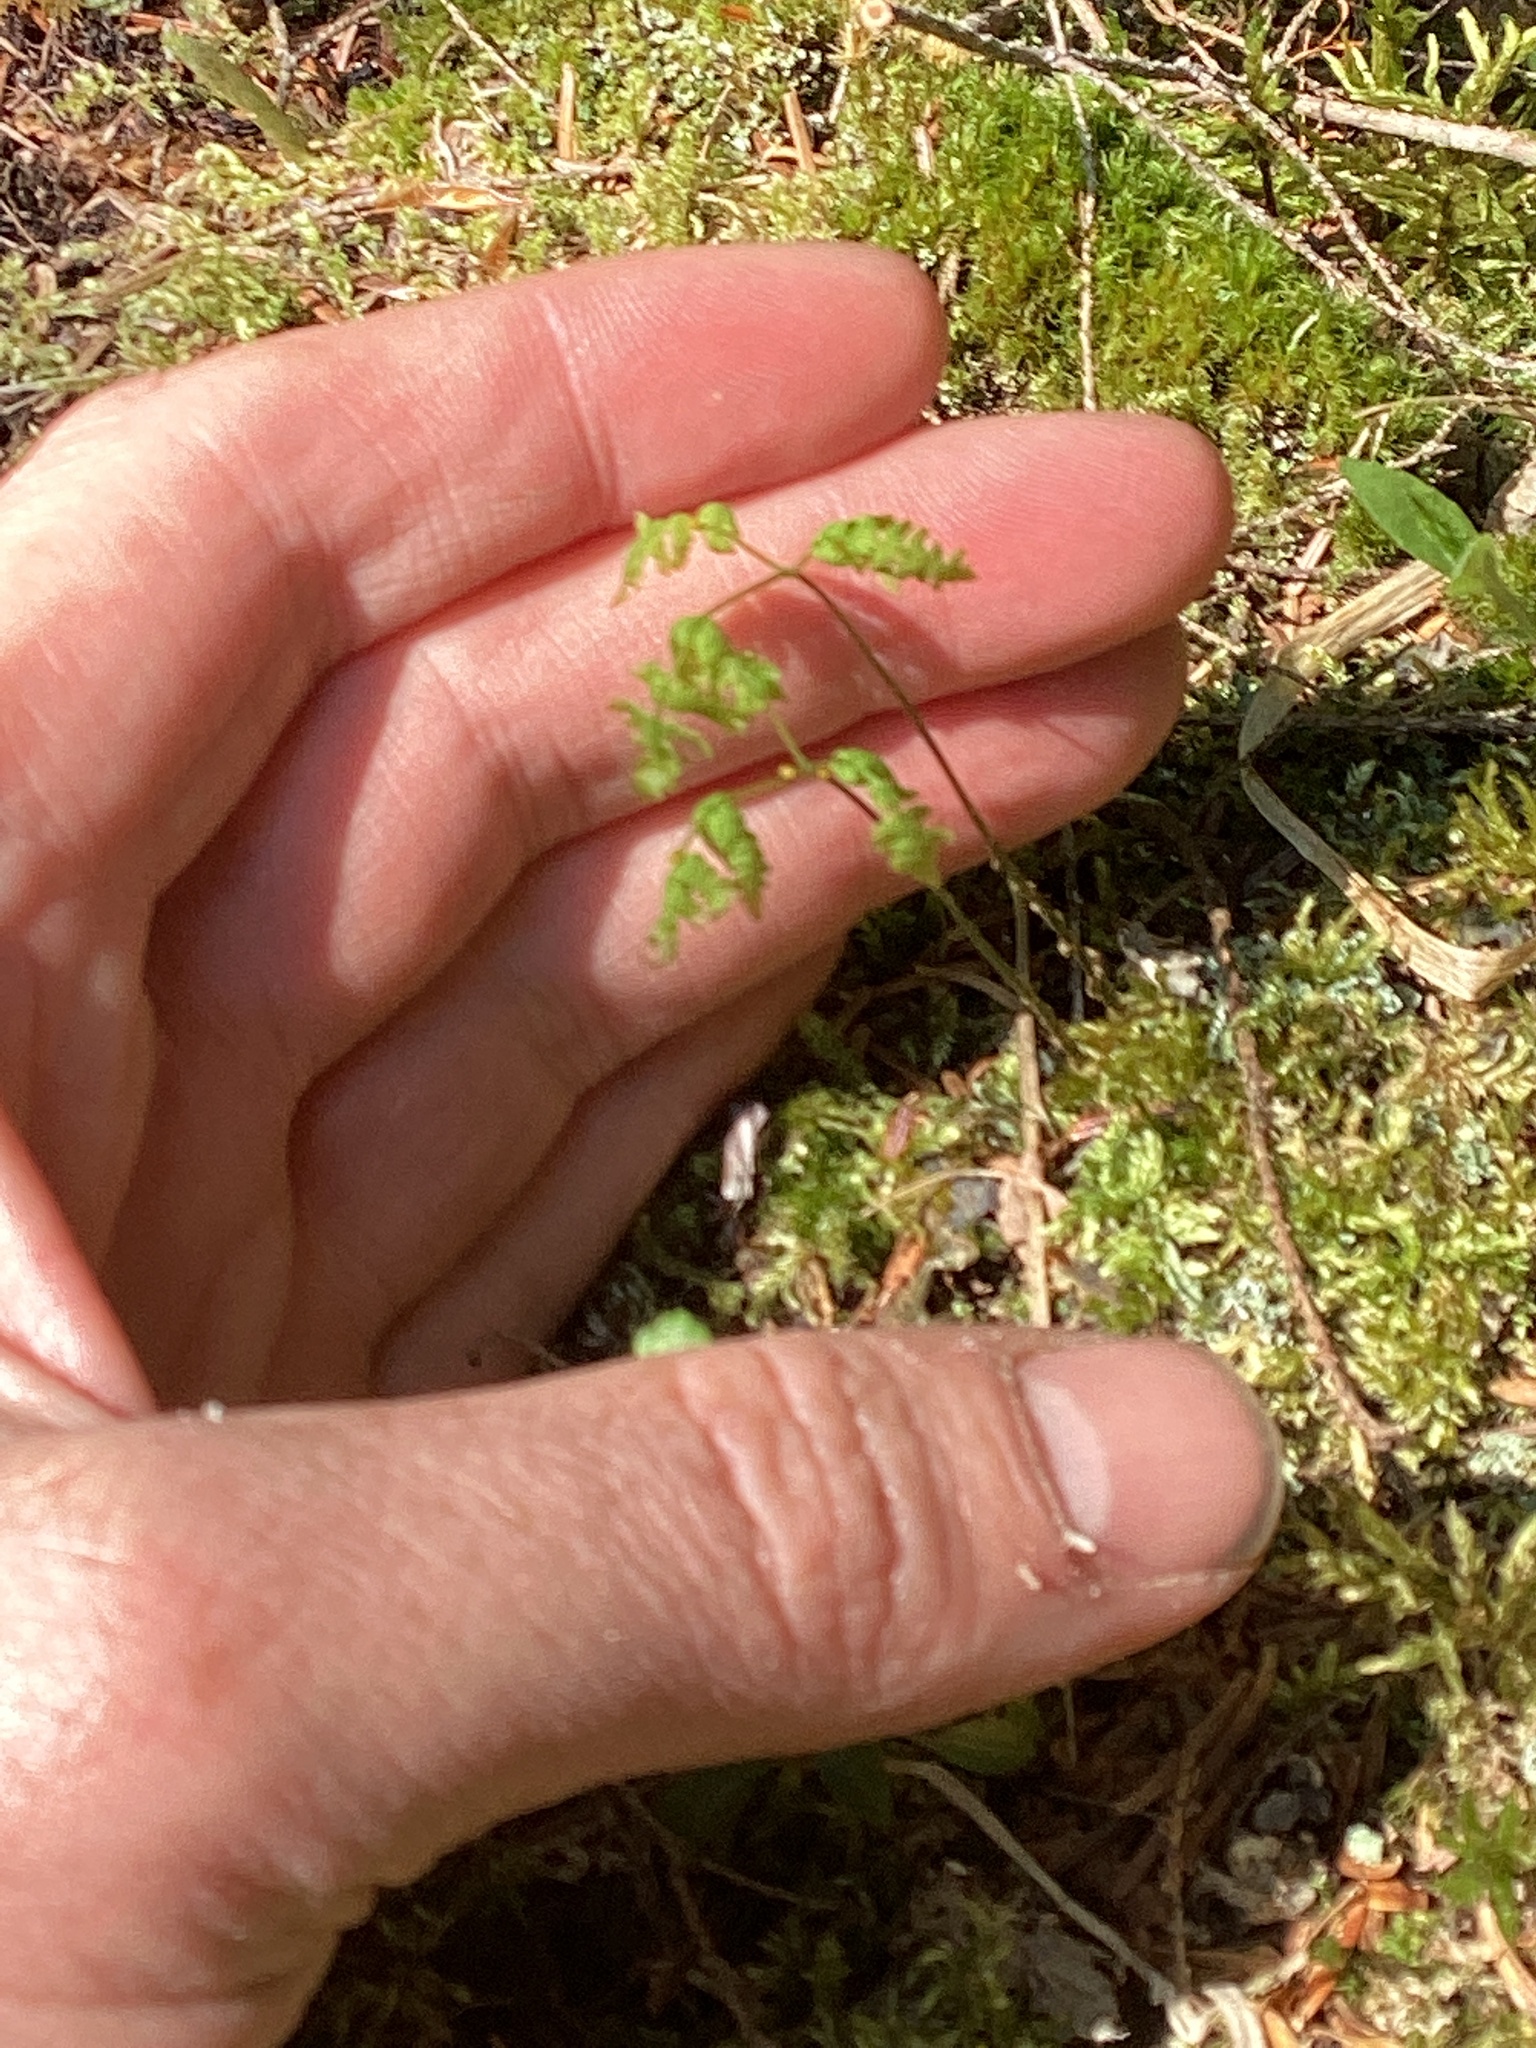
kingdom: Plantae
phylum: Tracheophyta
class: Polypodiopsida
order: Polypodiales
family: Cystopteridaceae
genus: Gymnocarpium
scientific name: Gymnocarpium dryopteris
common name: Oak fern
